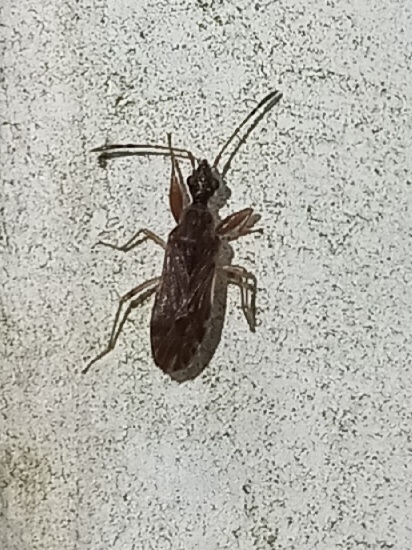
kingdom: Animalia
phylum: Arthropoda
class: Insecta
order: Hemiptera
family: Rhyparochromidae
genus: Heraeus
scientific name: Heraeus plebejus
